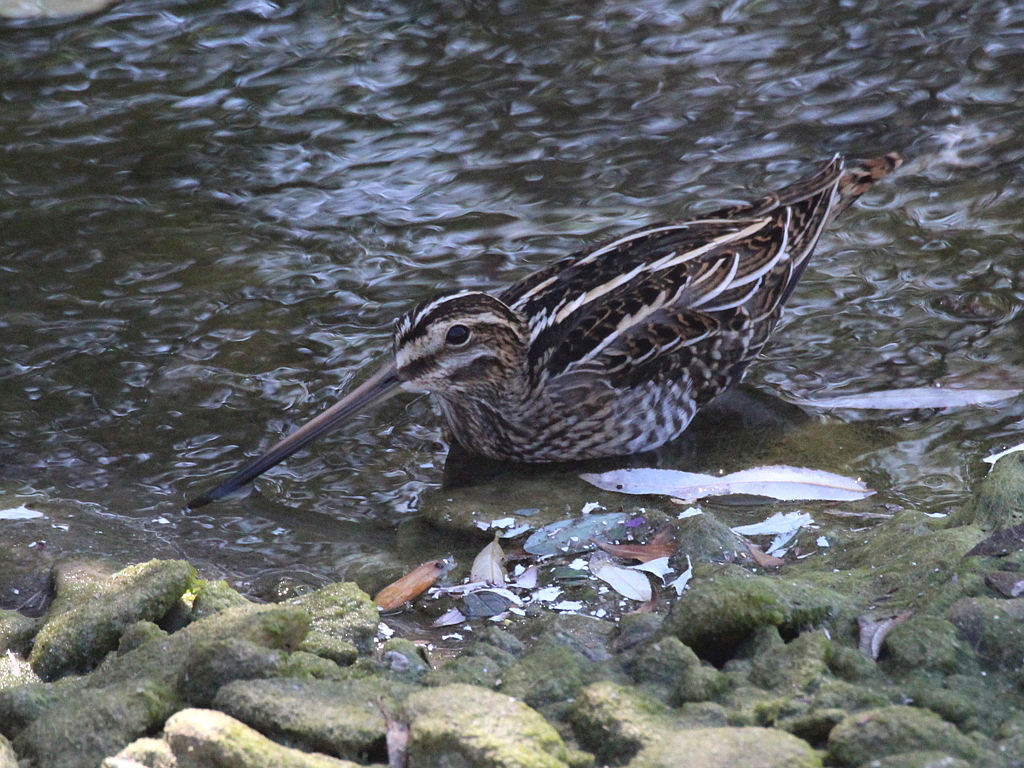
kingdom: Animalia
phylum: Chordata
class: Aves
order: Charadriiformes
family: Scolopacidae
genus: Gallinago
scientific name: Gallinago gallinago
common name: Common snipe
